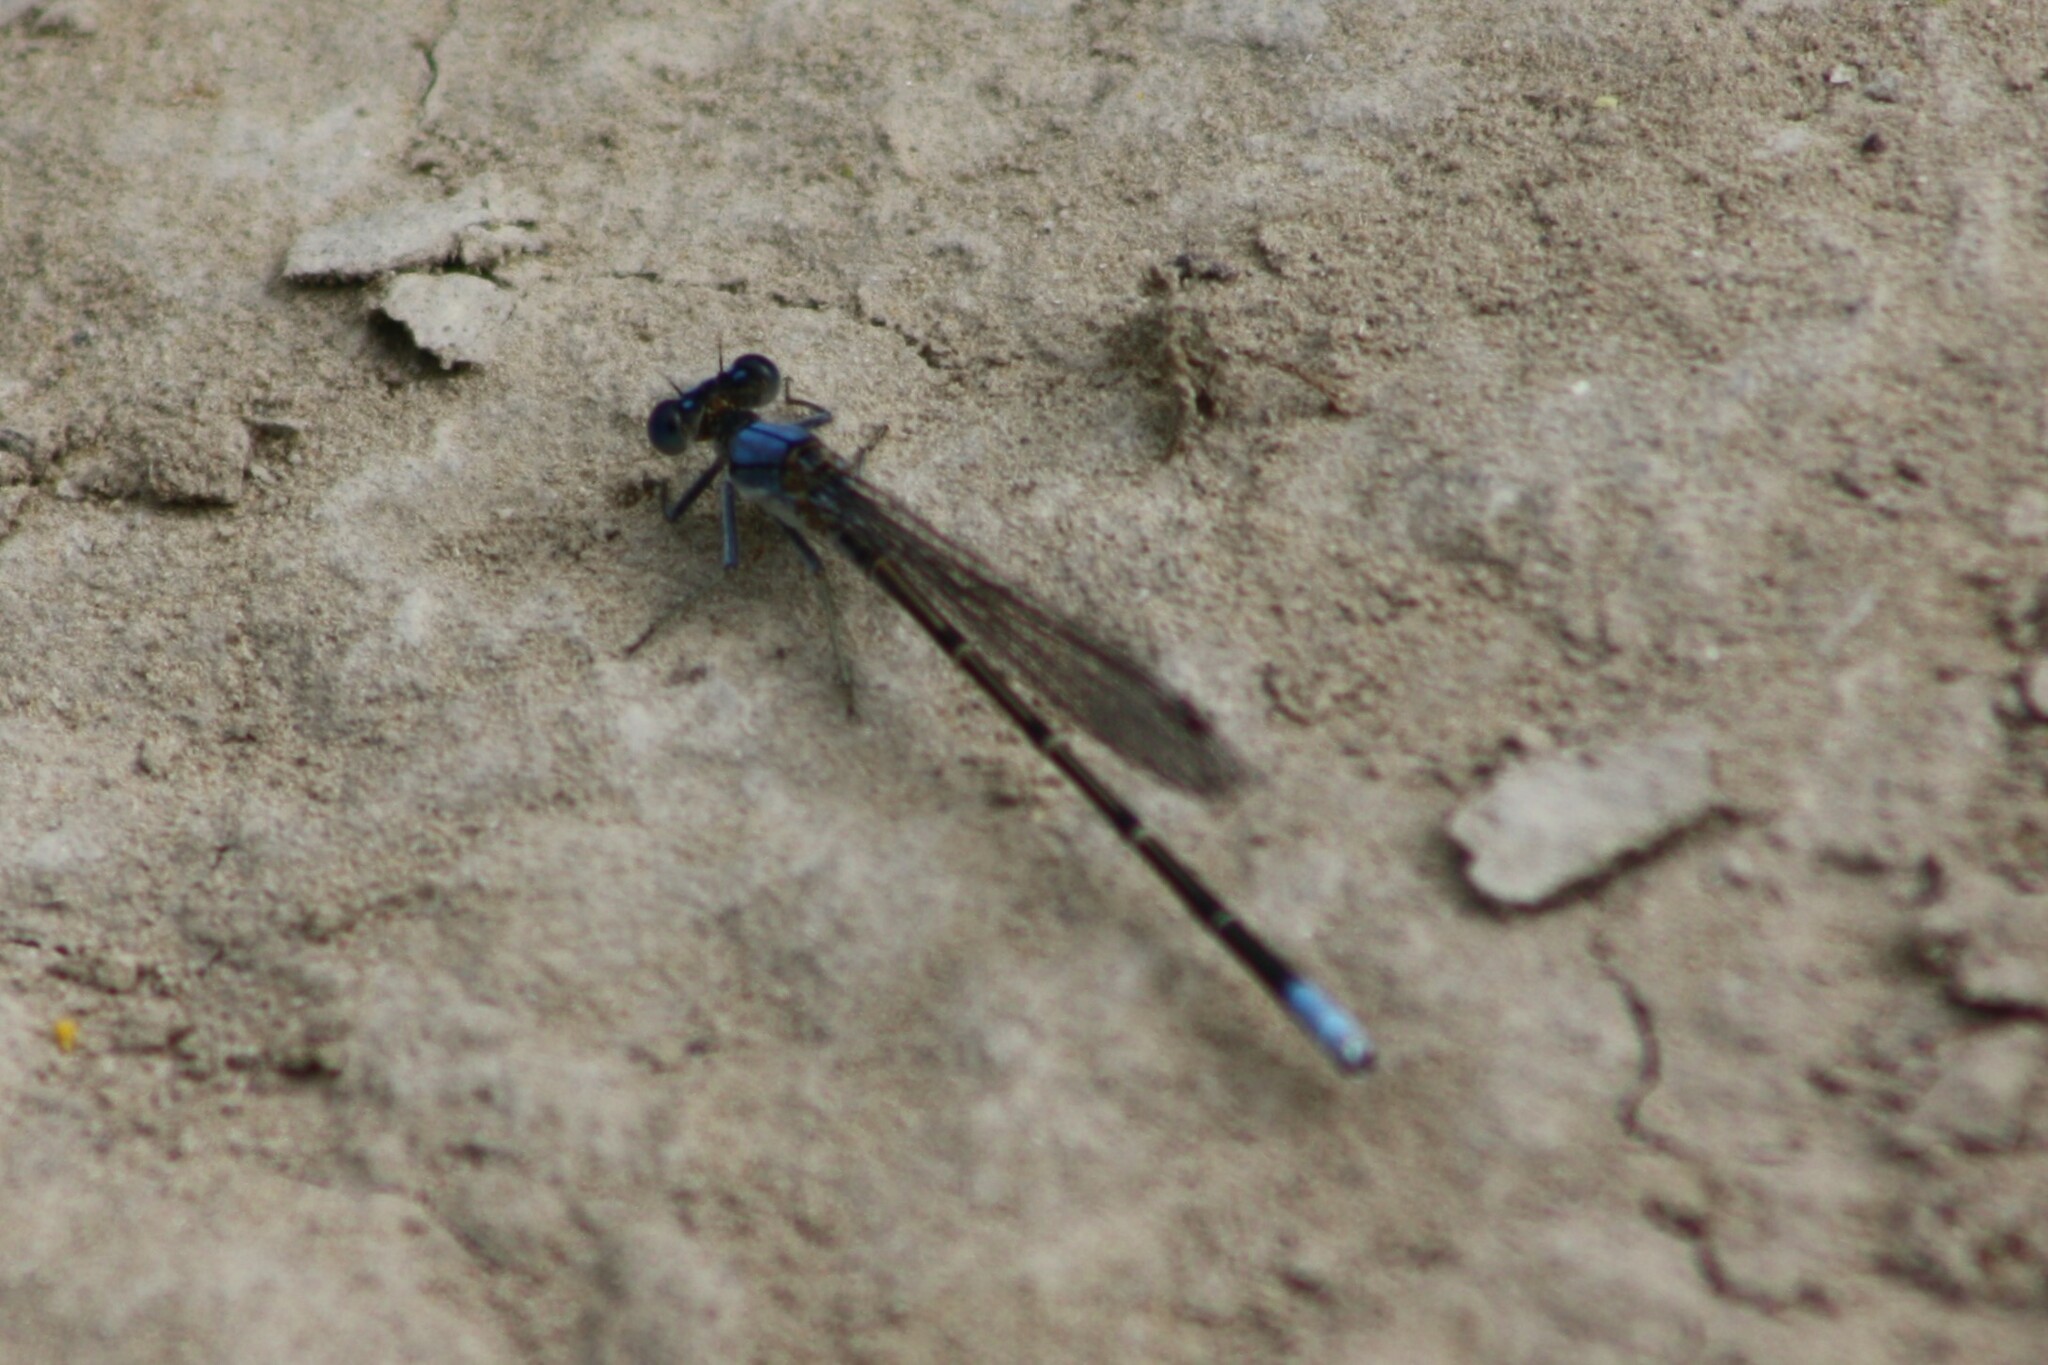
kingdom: Animalia
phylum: Arthropoda
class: Insecta
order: Odonata
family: Coenagrionidae
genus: Argia
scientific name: Argia apicalis
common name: Blue-fronted dancer
